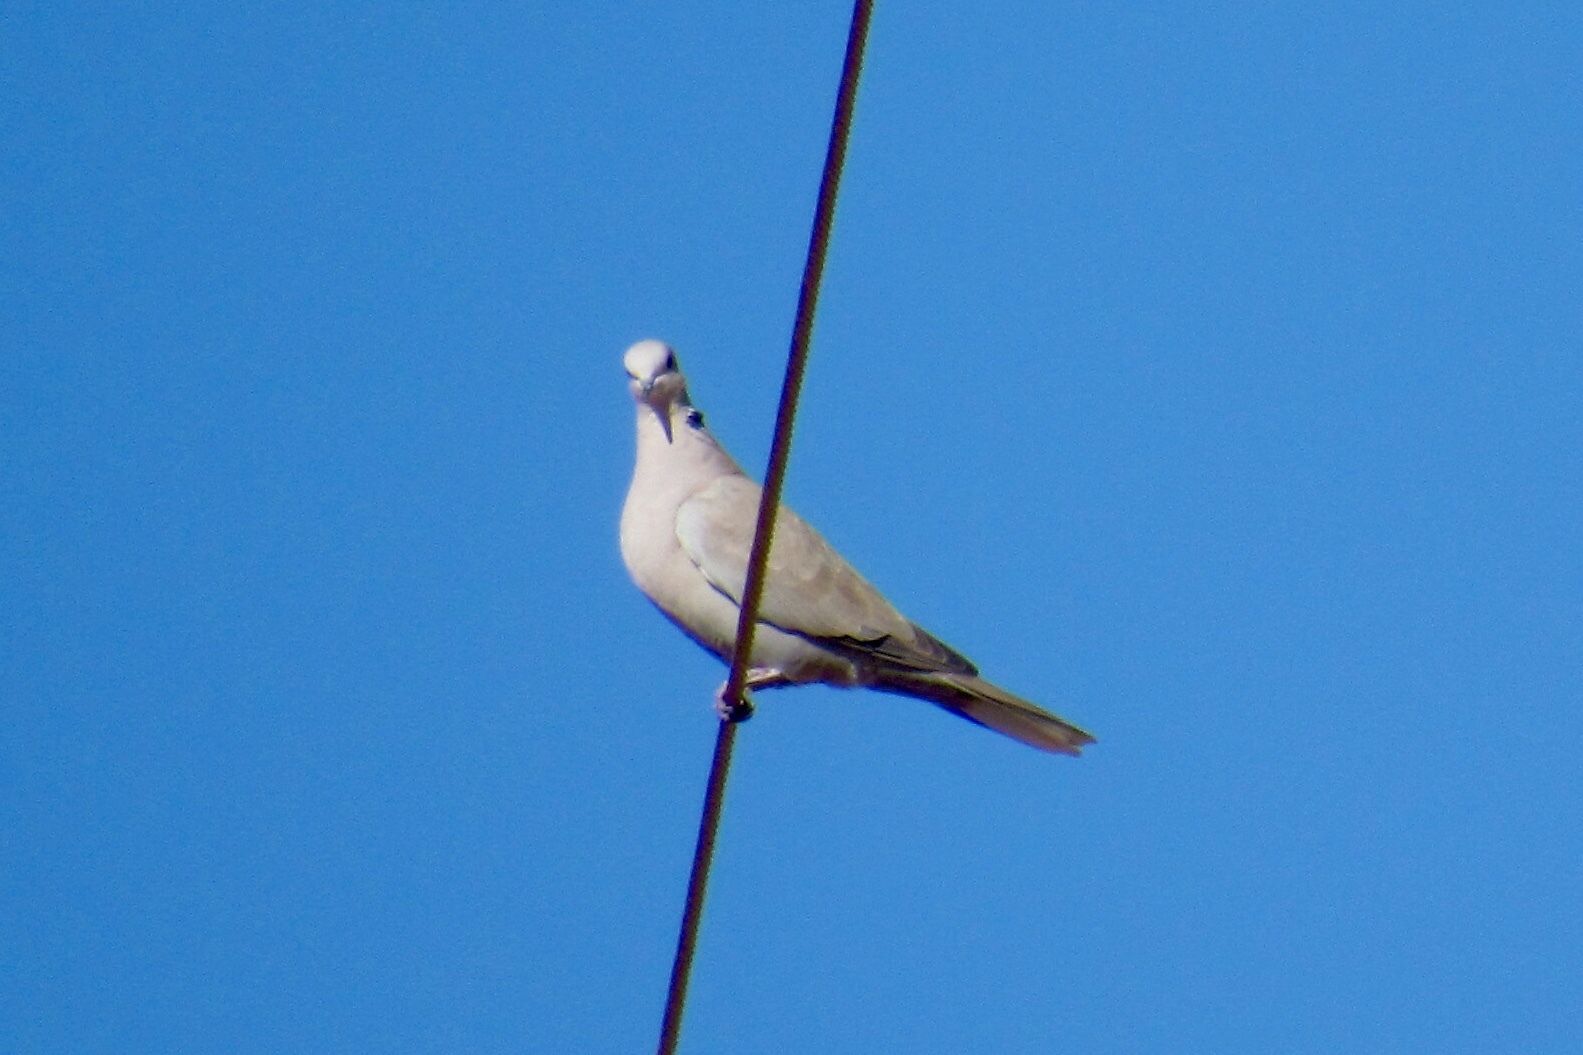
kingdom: Animalia
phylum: Chordata
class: Aves
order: Columbiformes
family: Columbidae
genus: Streptopelia
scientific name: Streptopelia decaocto
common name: Eurasian collared dove
